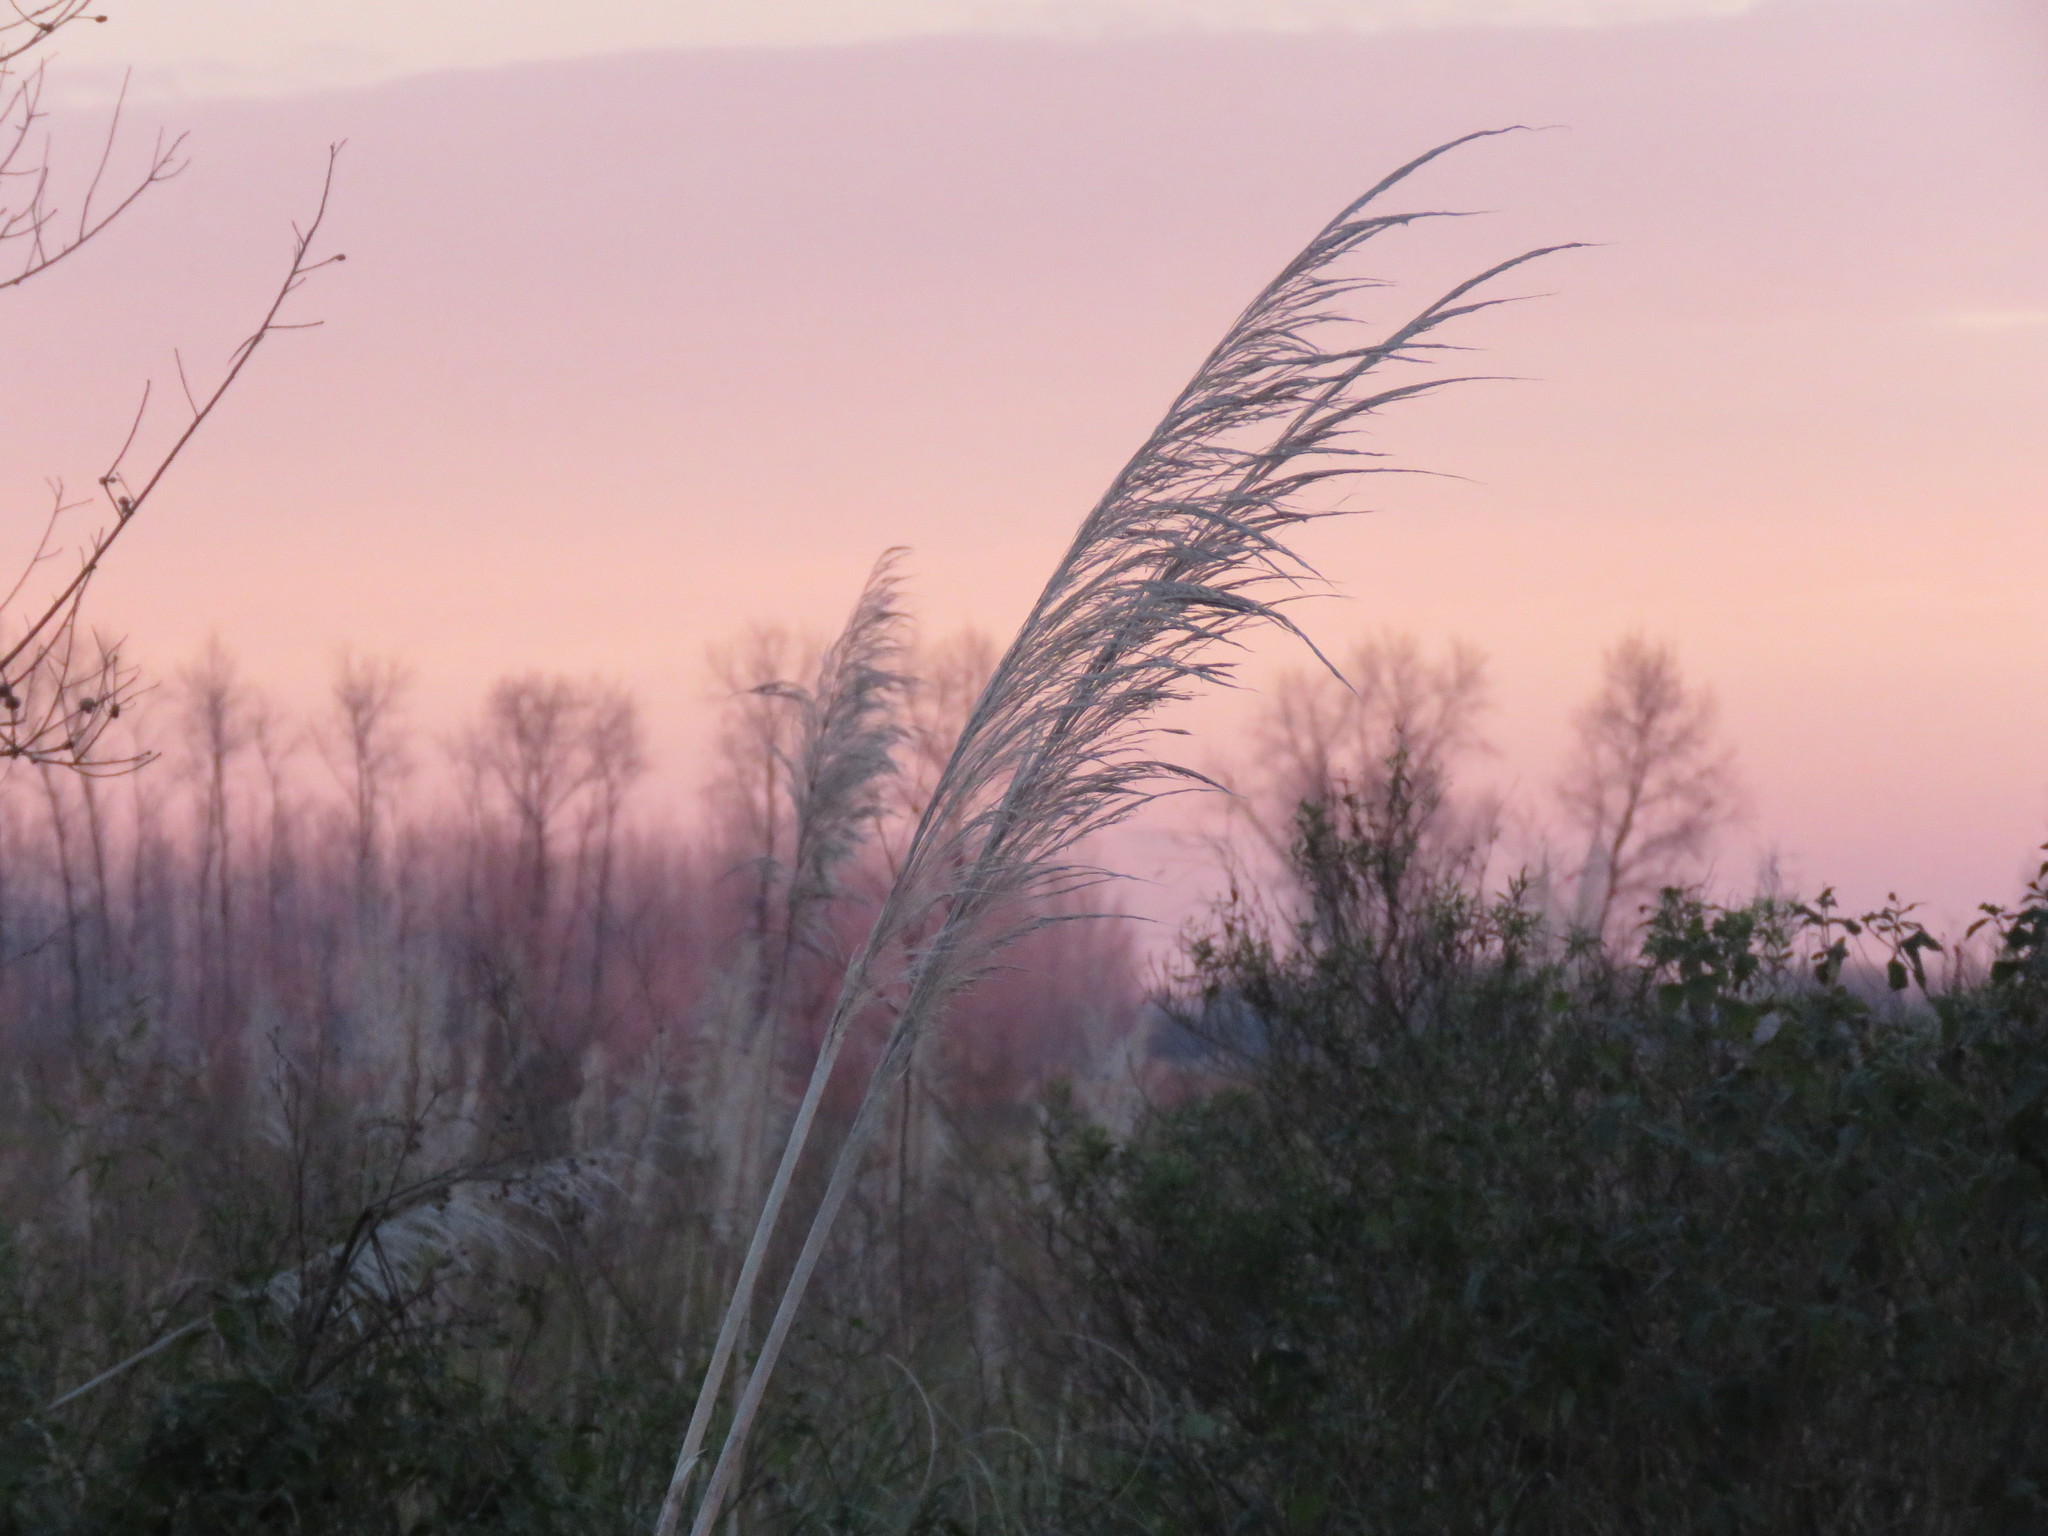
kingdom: Plantae
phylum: Tracheophyta
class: Liliopsida
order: Poales
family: Poaceae
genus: Cortaderia
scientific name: Cortaderia selloana
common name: Uruguayan pampas grass
